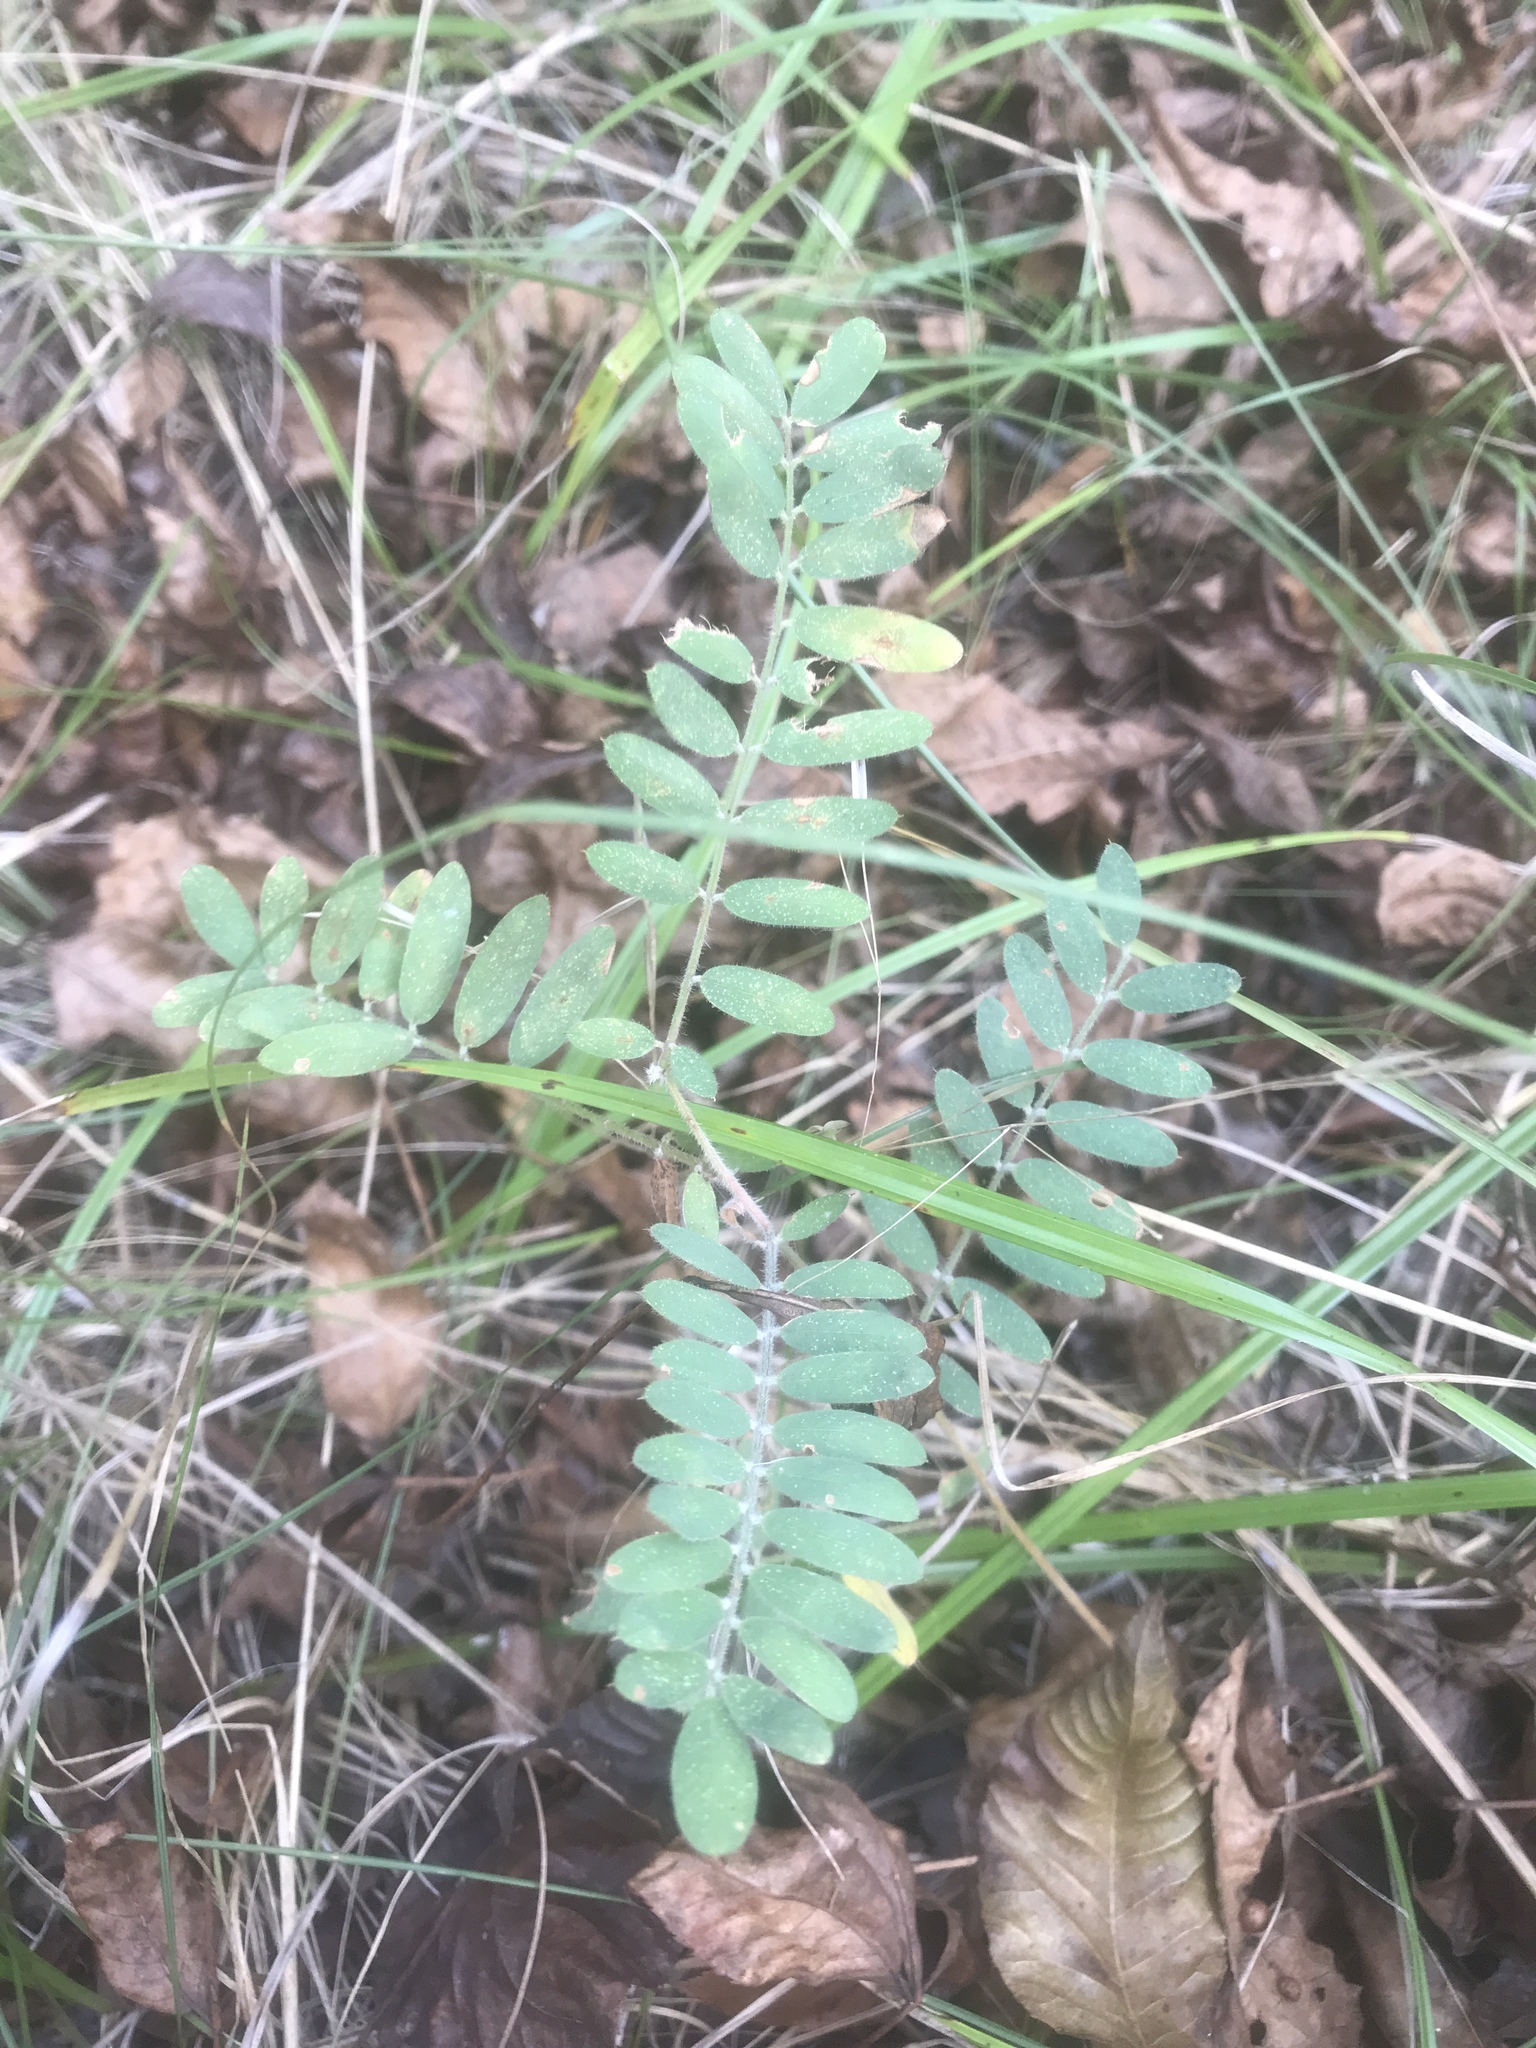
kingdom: Plantae
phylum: Tracheophyta
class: Magnoliopsida
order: Fabales
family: Fabaceae
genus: Tephrosia
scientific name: Tephrosia virginiana
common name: Rabbit-pea
